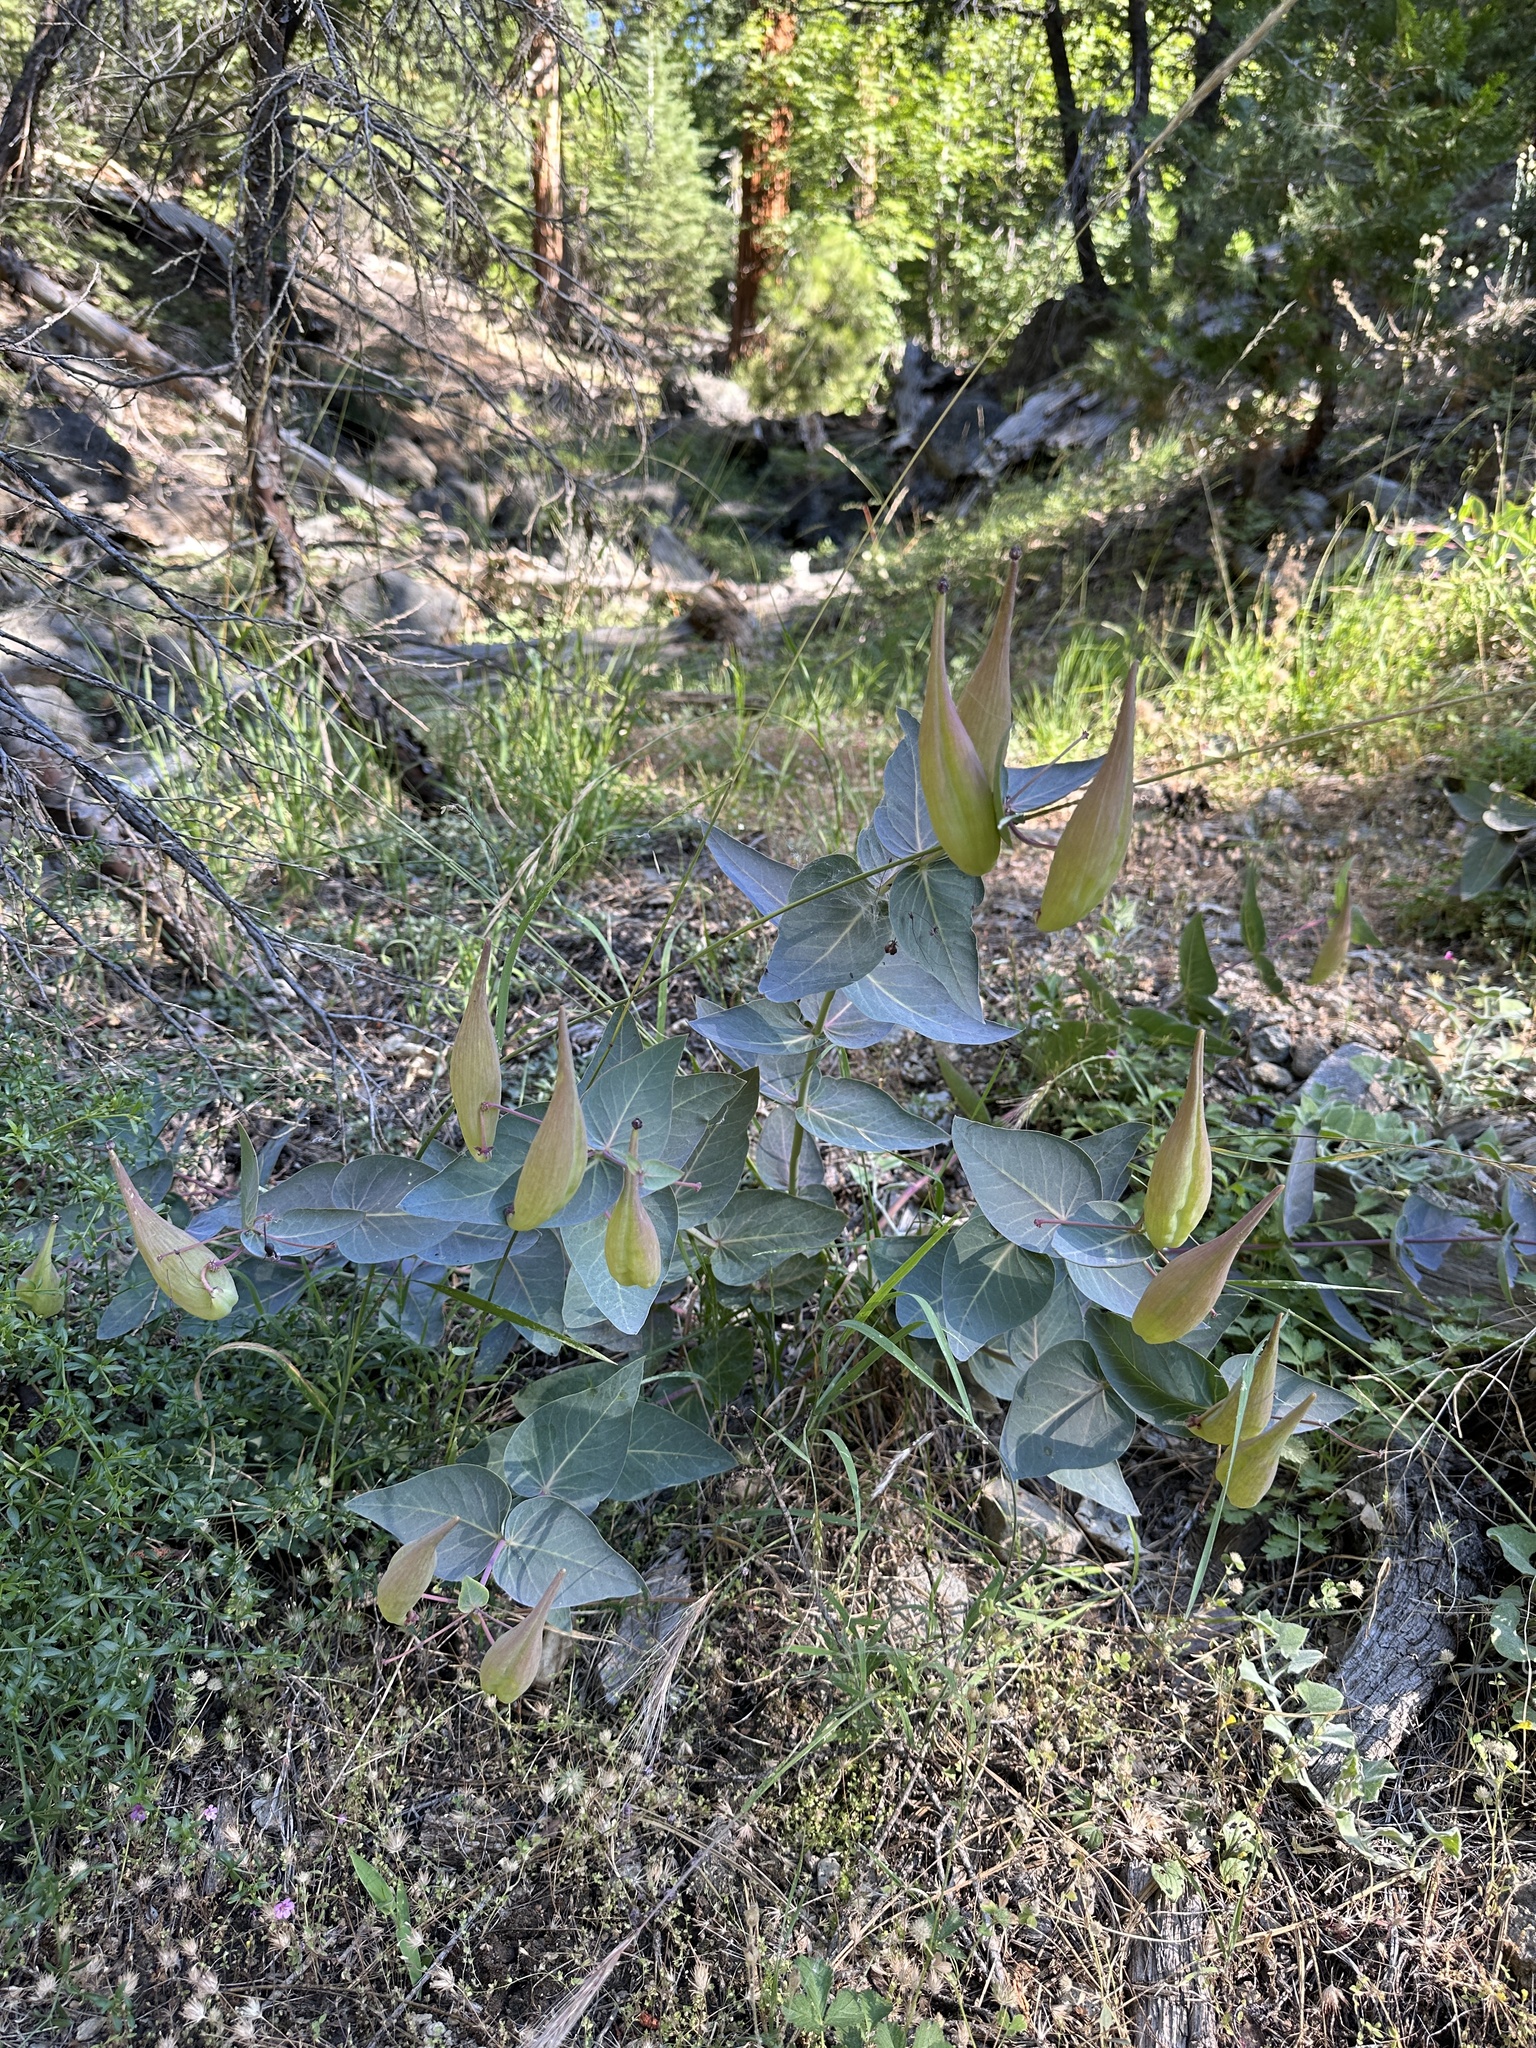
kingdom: Plantae
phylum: Tracheophyta
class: Magnoliopsida
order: Gentianales
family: Apocynaceae
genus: Asclepias
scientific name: Asclepias cordifolia
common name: Purple milkweed
